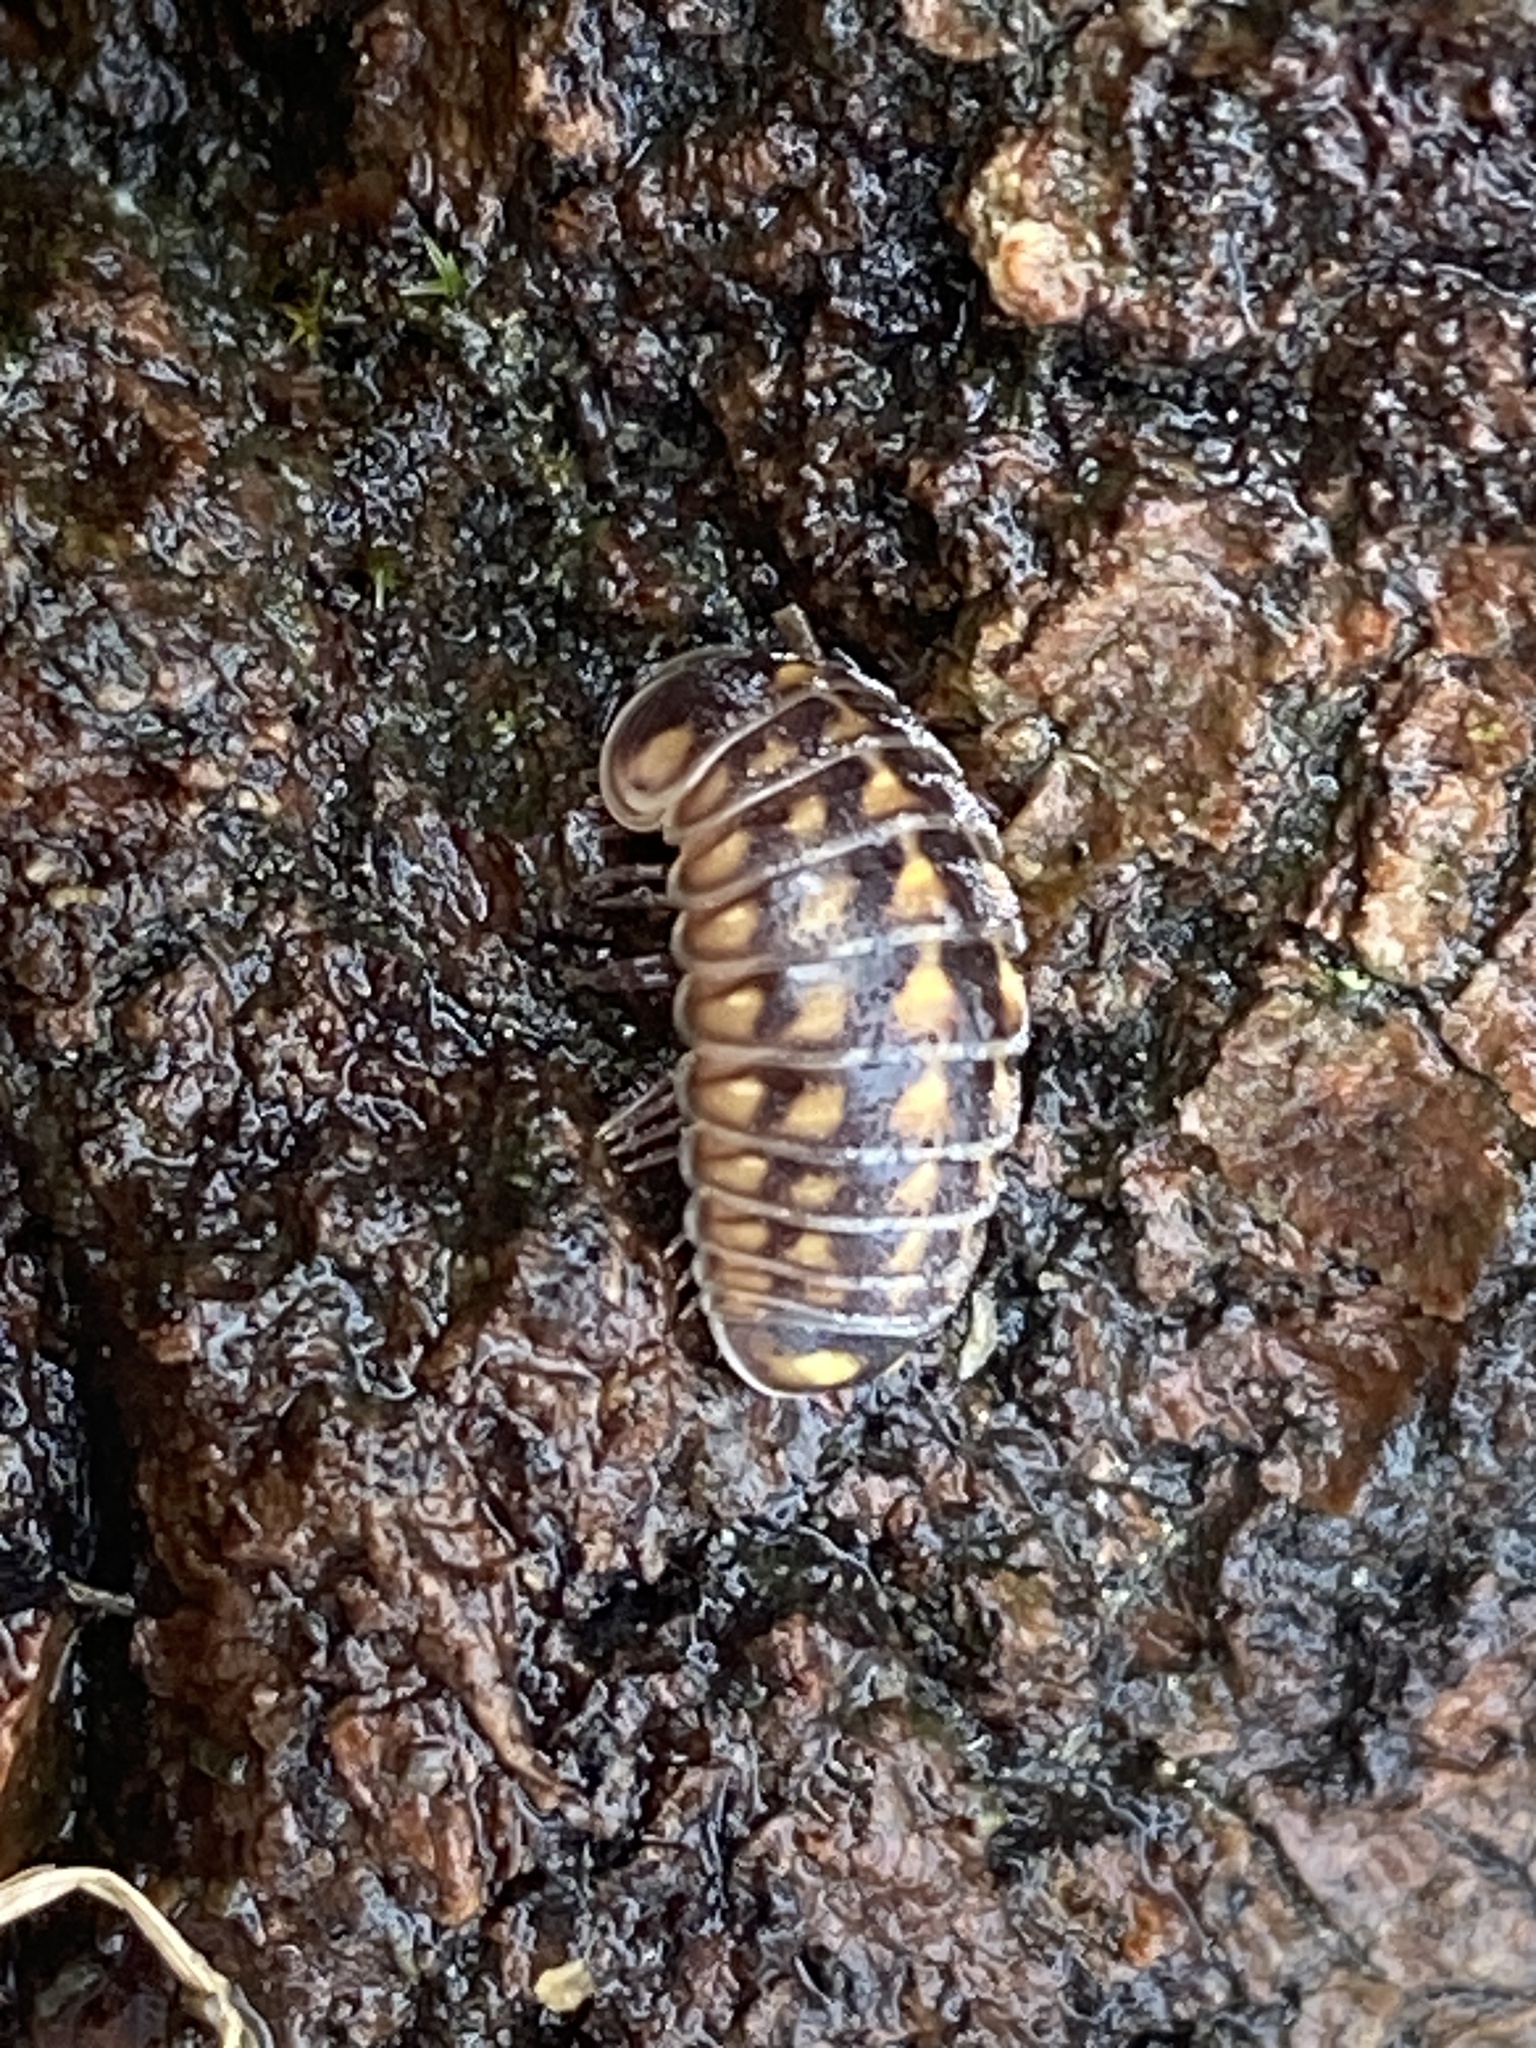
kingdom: Animalia
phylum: Arthropoda
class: Diplopoda
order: Glomerida
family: Glomeridae
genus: Glomeris
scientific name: Glomeris hexasticha
